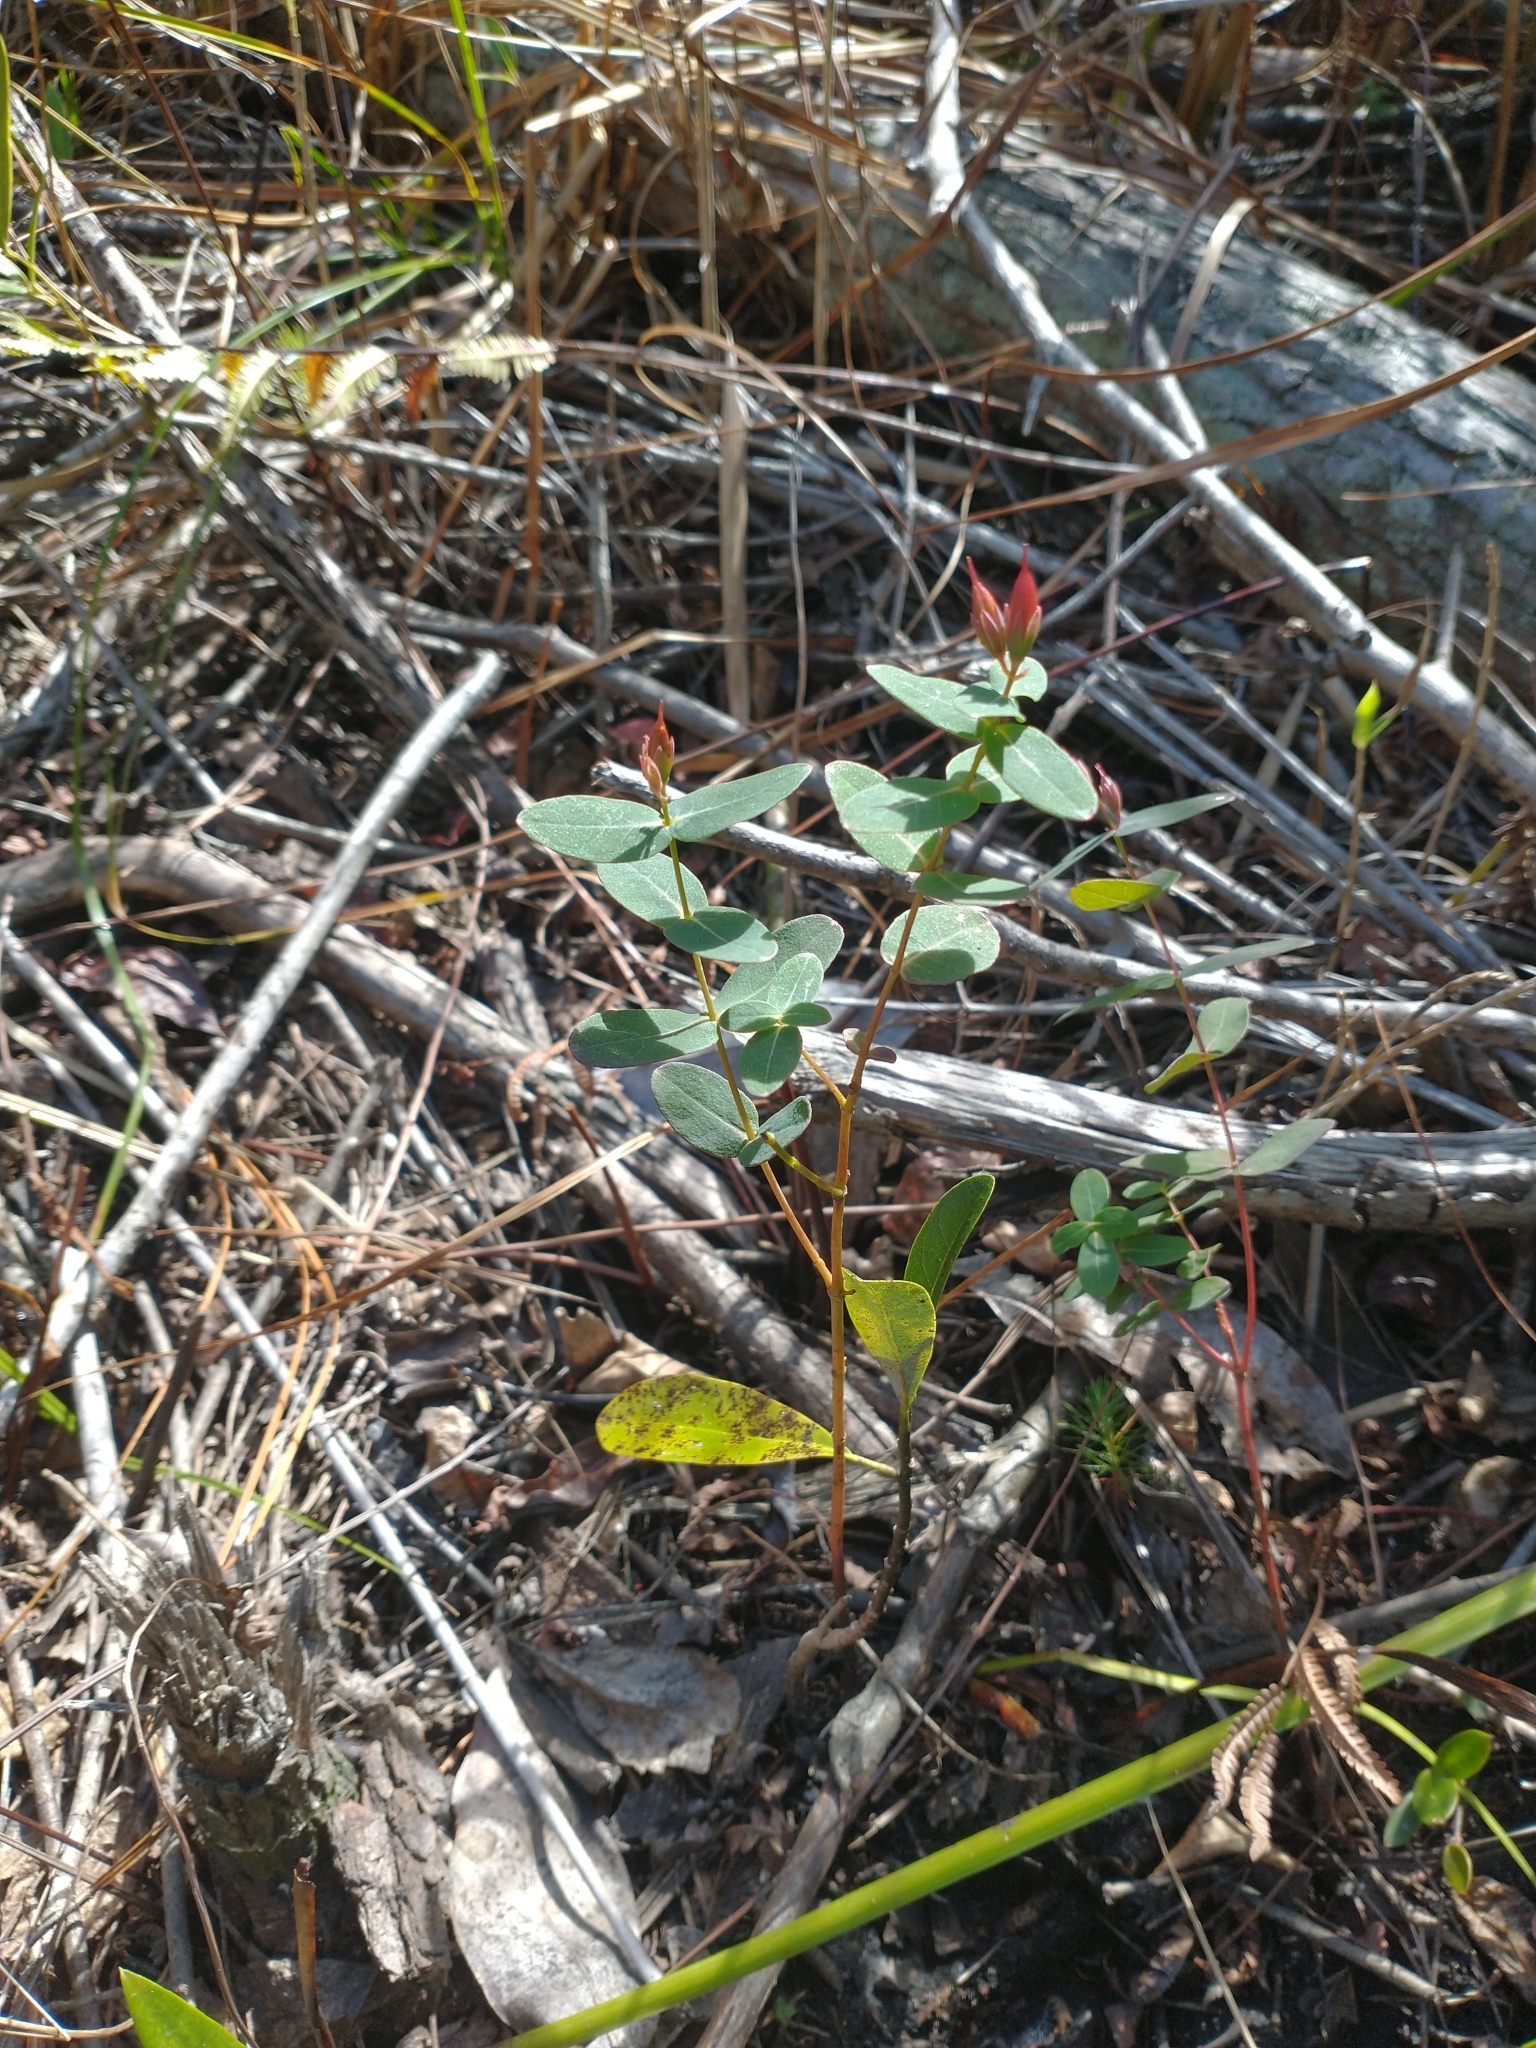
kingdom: Plantae
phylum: Tracheophyta
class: Magnoliopsida
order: Malpighiales
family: Hypericaceae
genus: Triadenum
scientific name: Triadenum virginicum
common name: Marsh st. john's-wort
